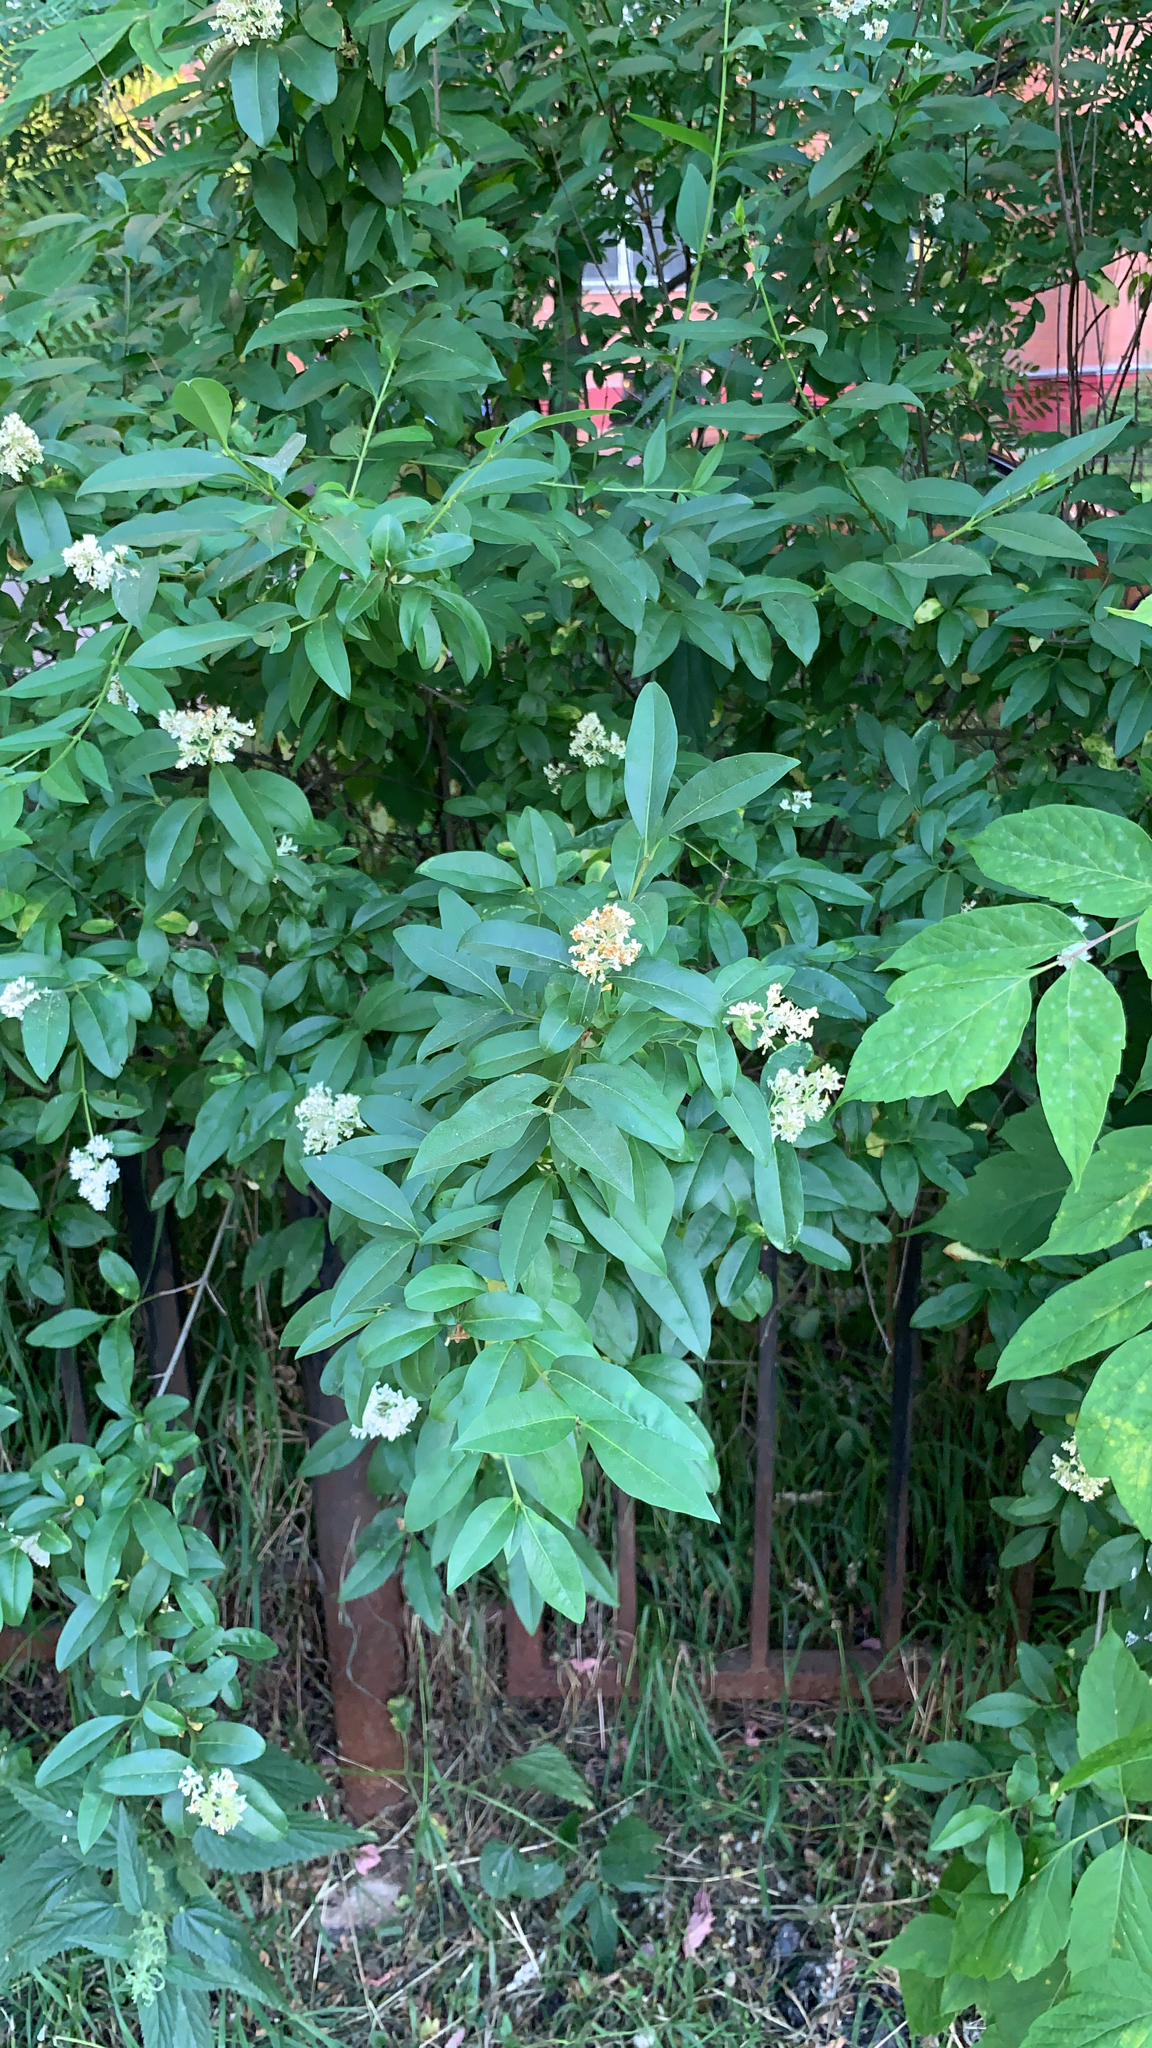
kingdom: Plantae
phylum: Tracheophyta
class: Magnoliopsida
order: Lamiales
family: Oleaceae
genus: Ligustrum
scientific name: Ligustrum vulgare
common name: Wild privet
